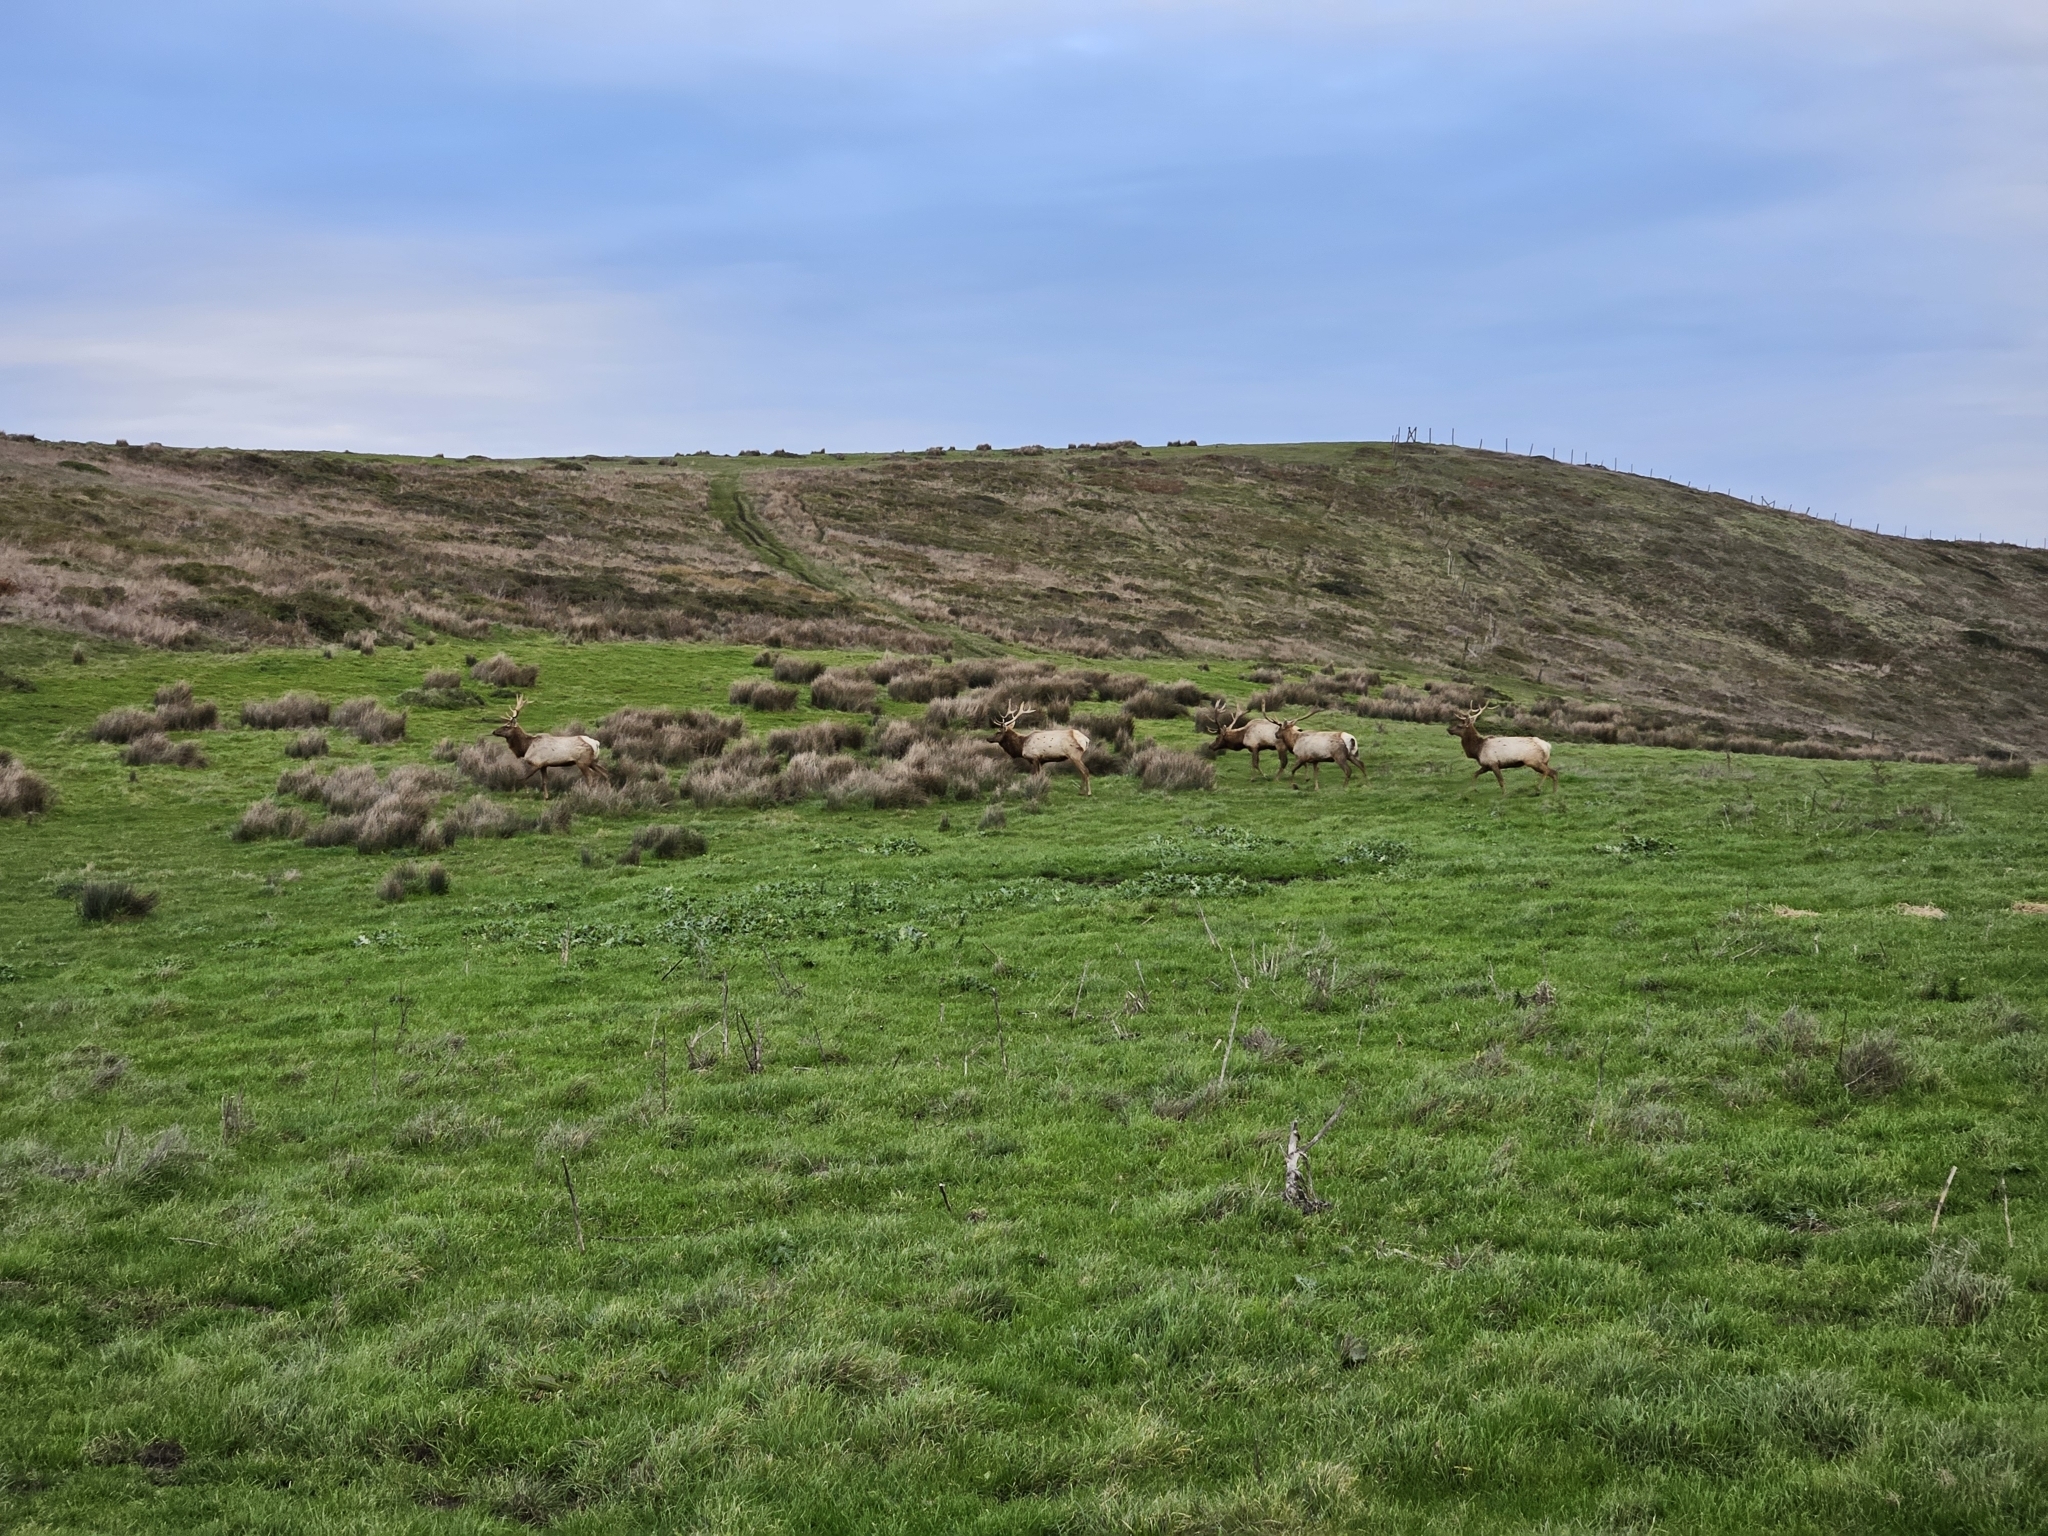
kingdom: Animalia
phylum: Chordata
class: Mammalia
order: Artiodactyla
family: Cervidae
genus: Cervus
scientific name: Cervus elaphus
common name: Red deer
